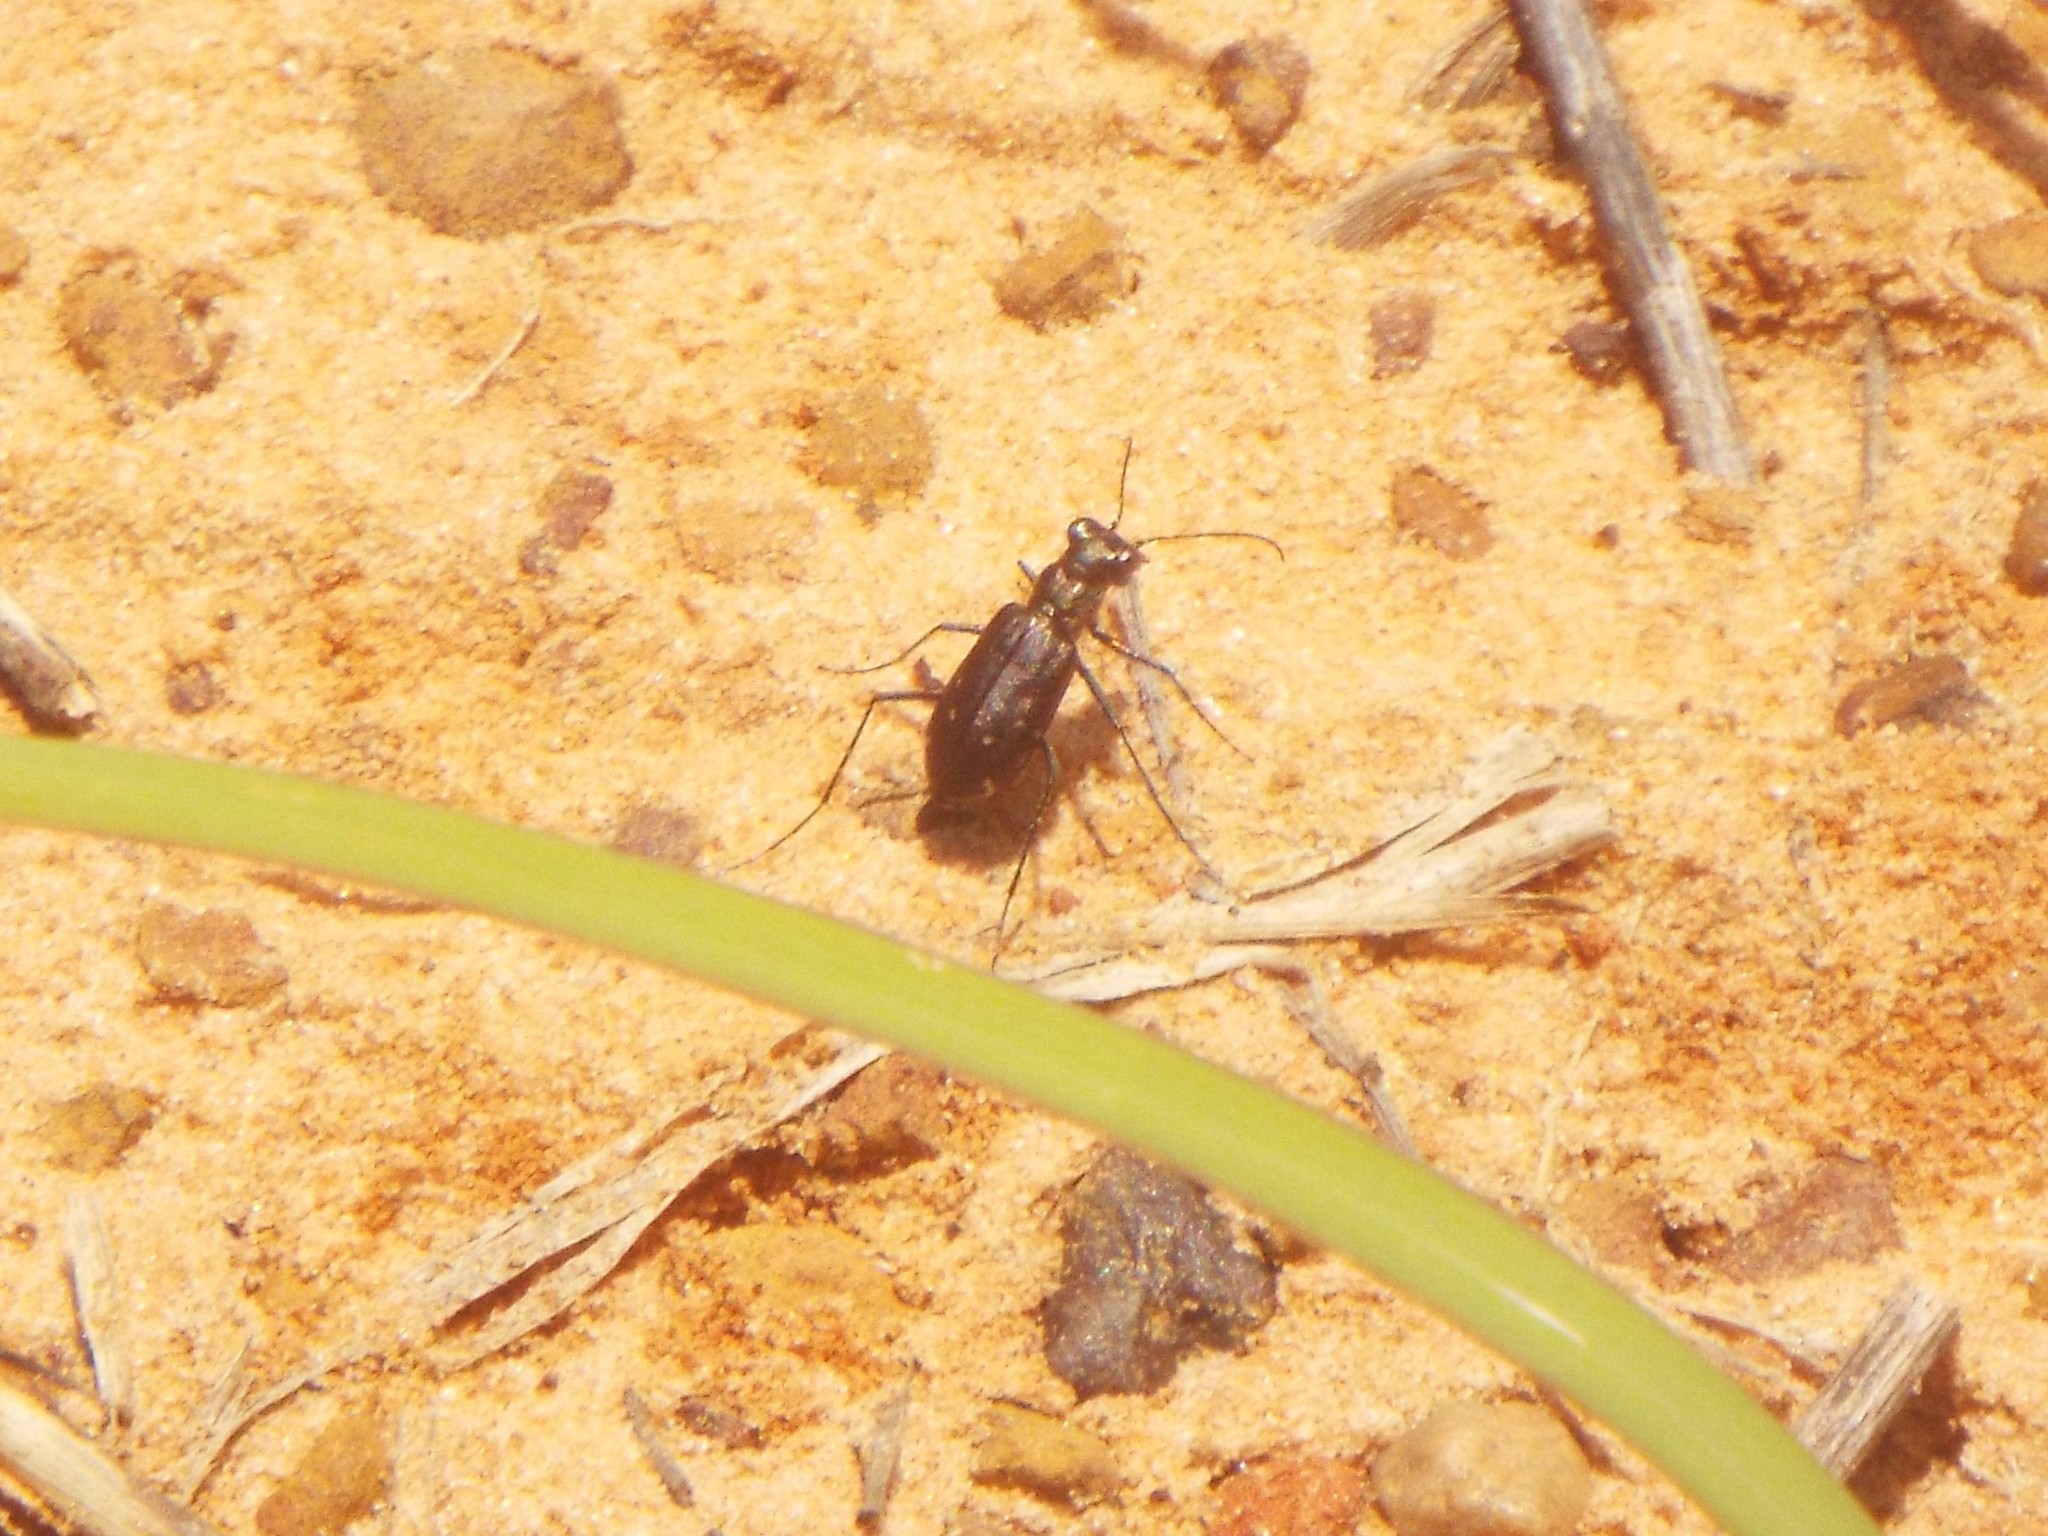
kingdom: Animalia
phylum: Arthropoda
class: Insecta
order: Coleoptera
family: Carabidae
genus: Cicindela
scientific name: Cicindela punctulata
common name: Punctured tiger beetle
